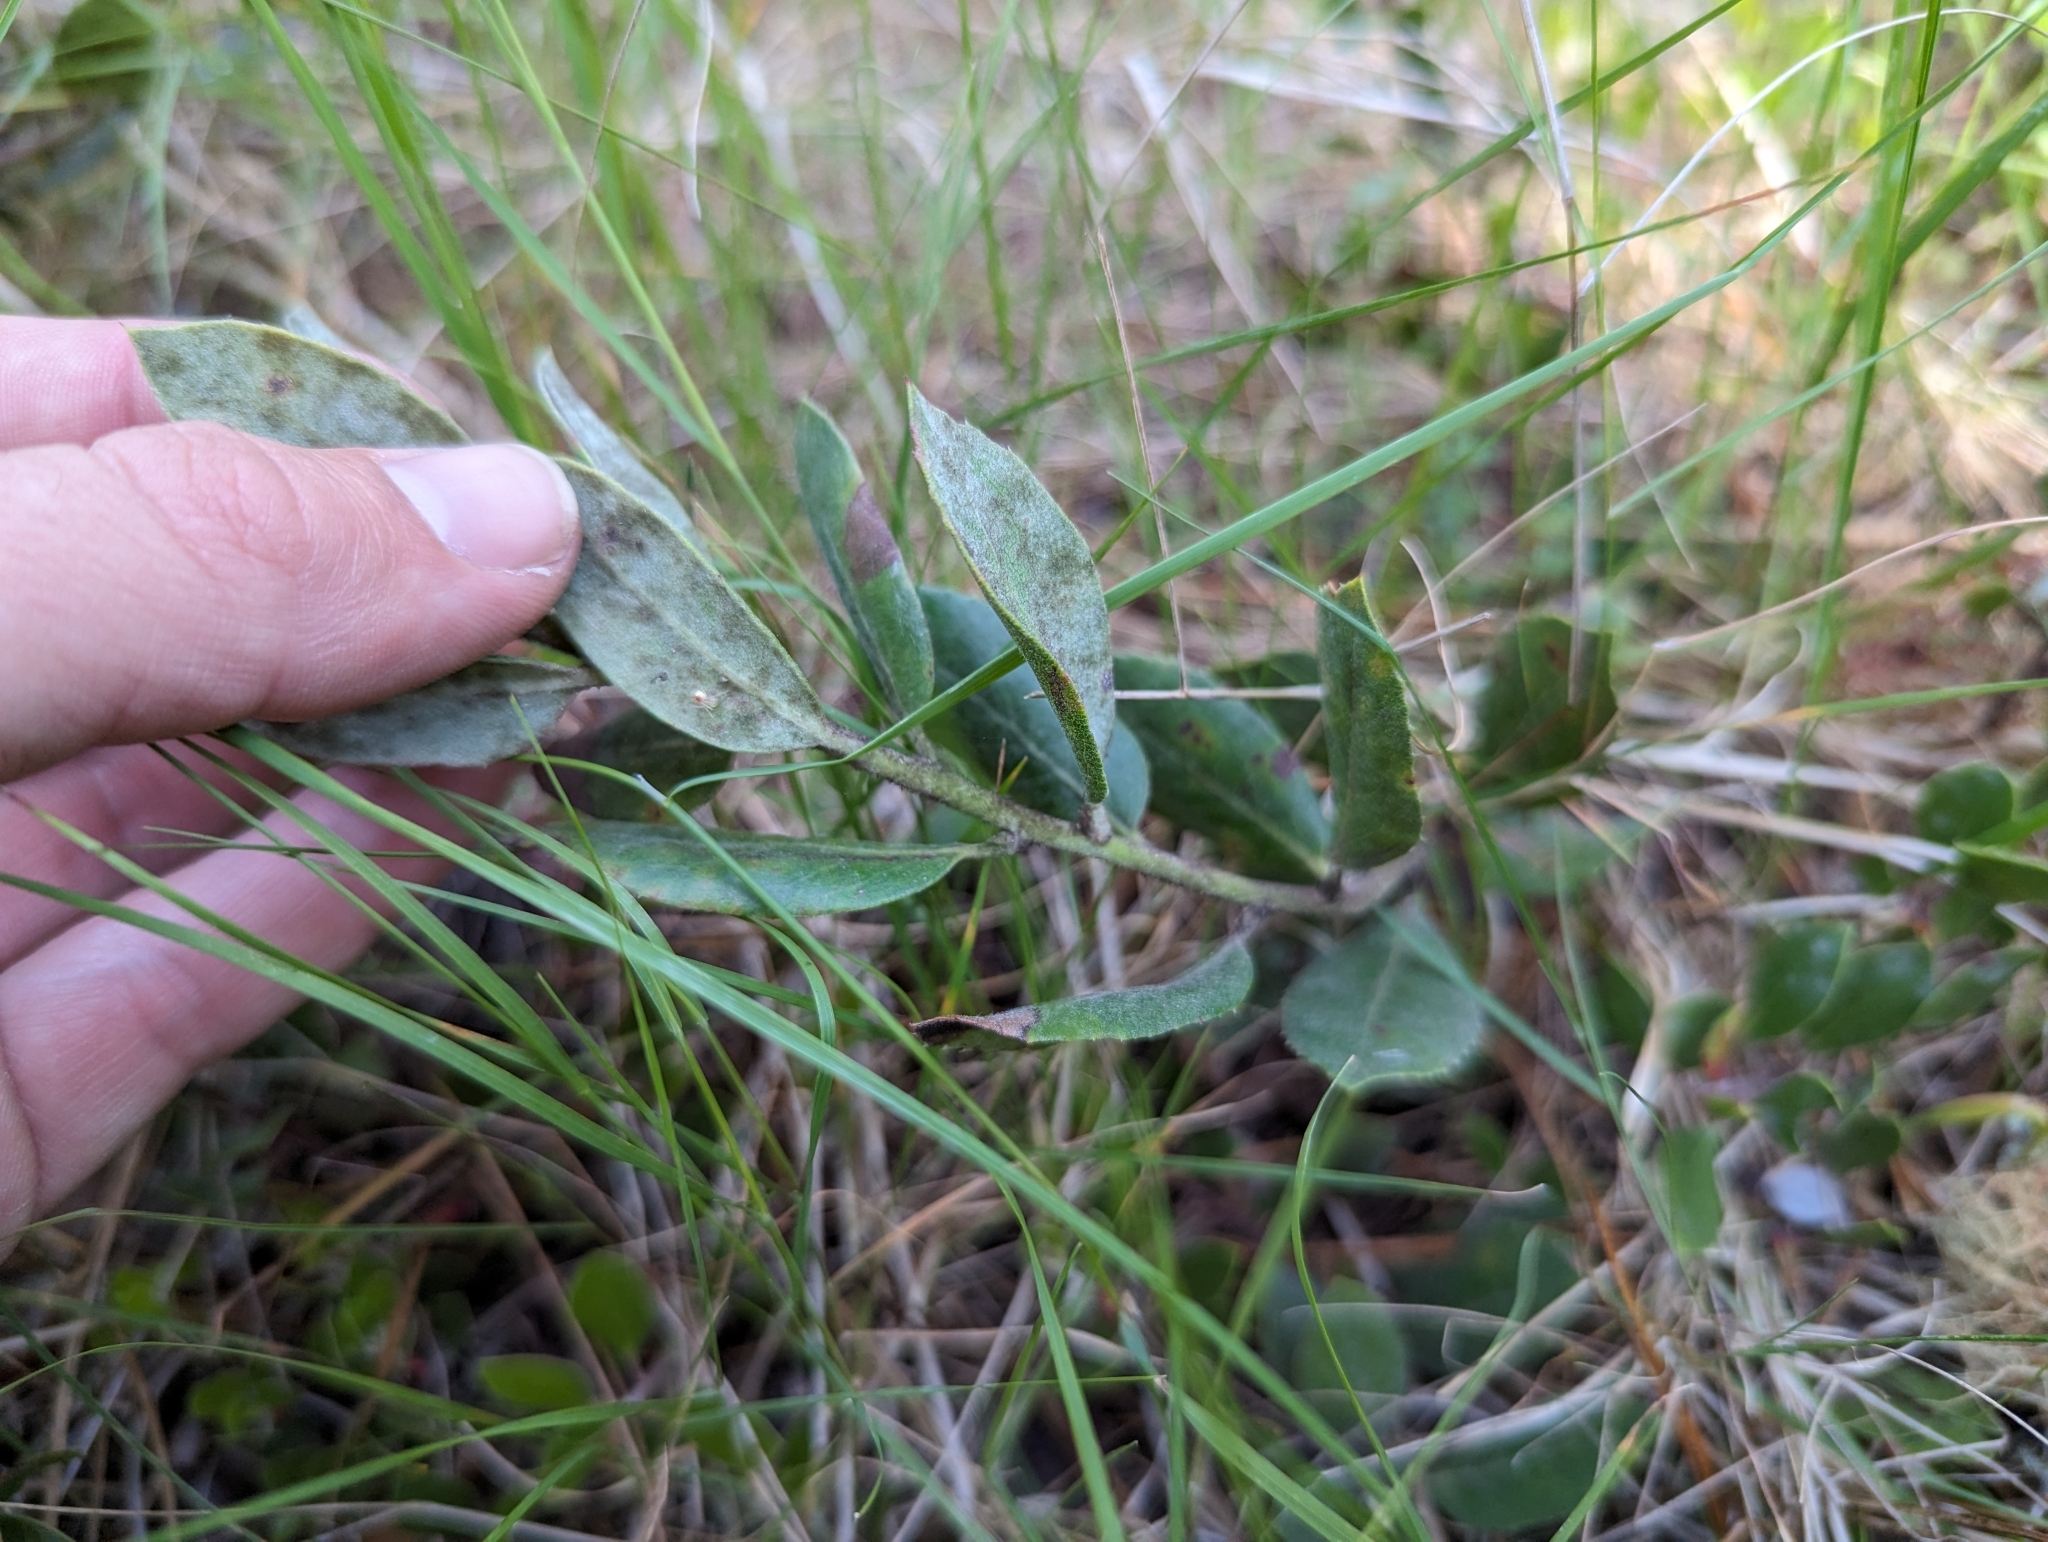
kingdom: Plantae
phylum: Tracheophyta
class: Magnoliopsida
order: Ericales
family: Ericaceae
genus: Arctostaphylos
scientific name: Arctostaphylos tomentosa
